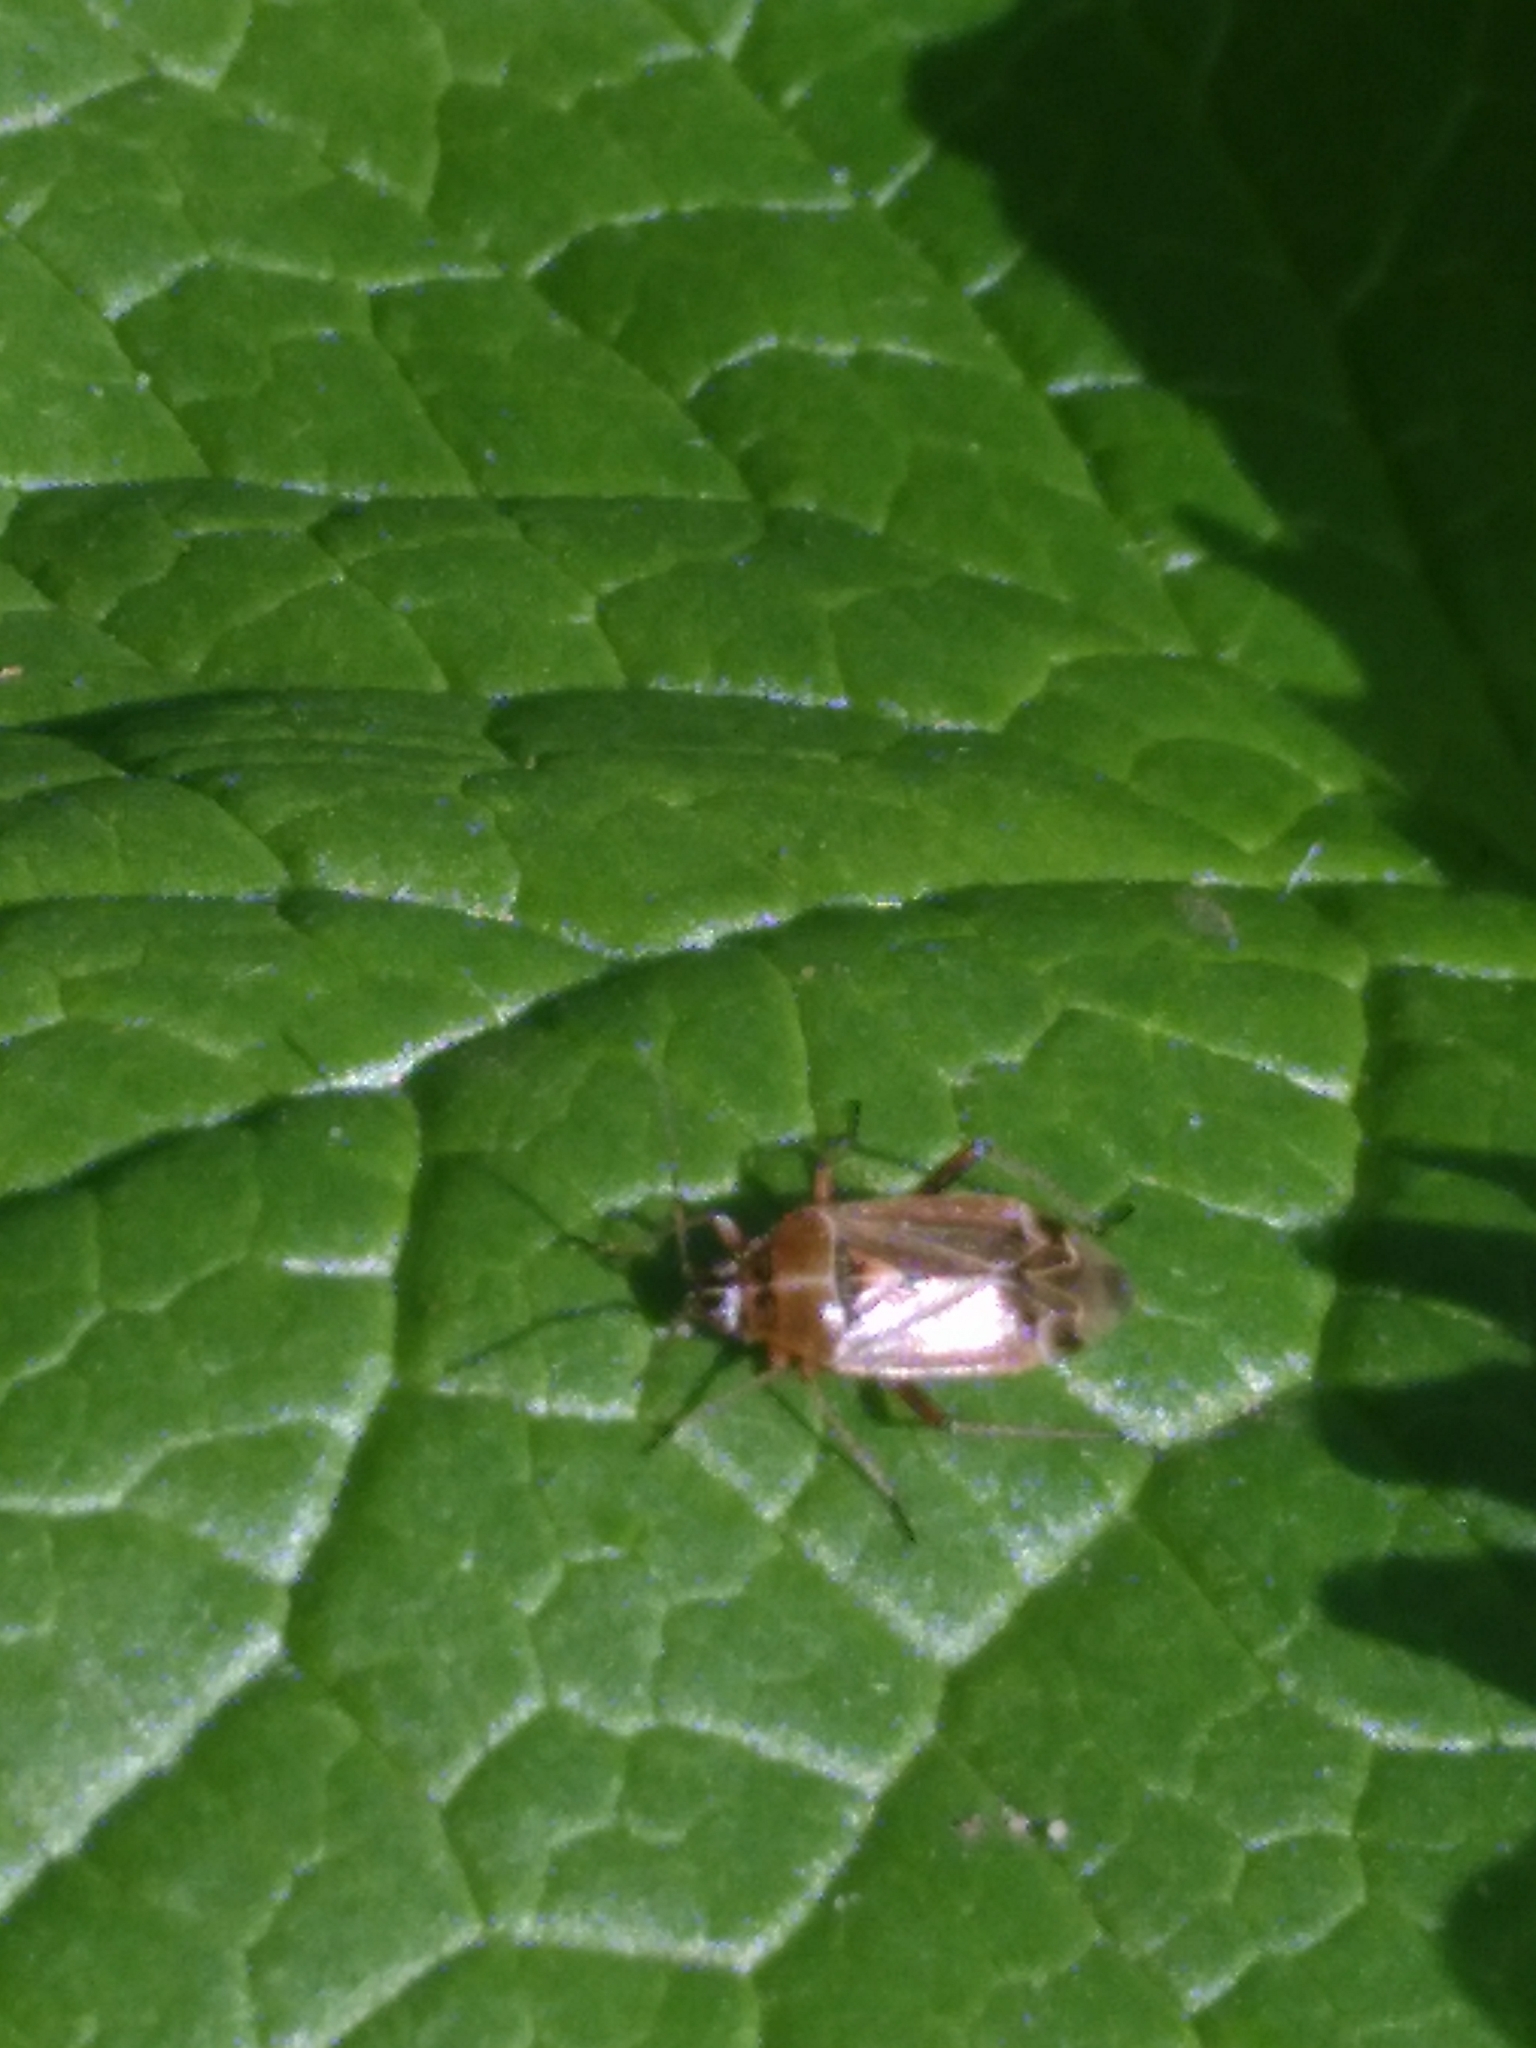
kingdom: Animalia
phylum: Arthropoda
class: Insecta
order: Hemiptera
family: Miridae
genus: Harpocera
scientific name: Harpocera thoracica
